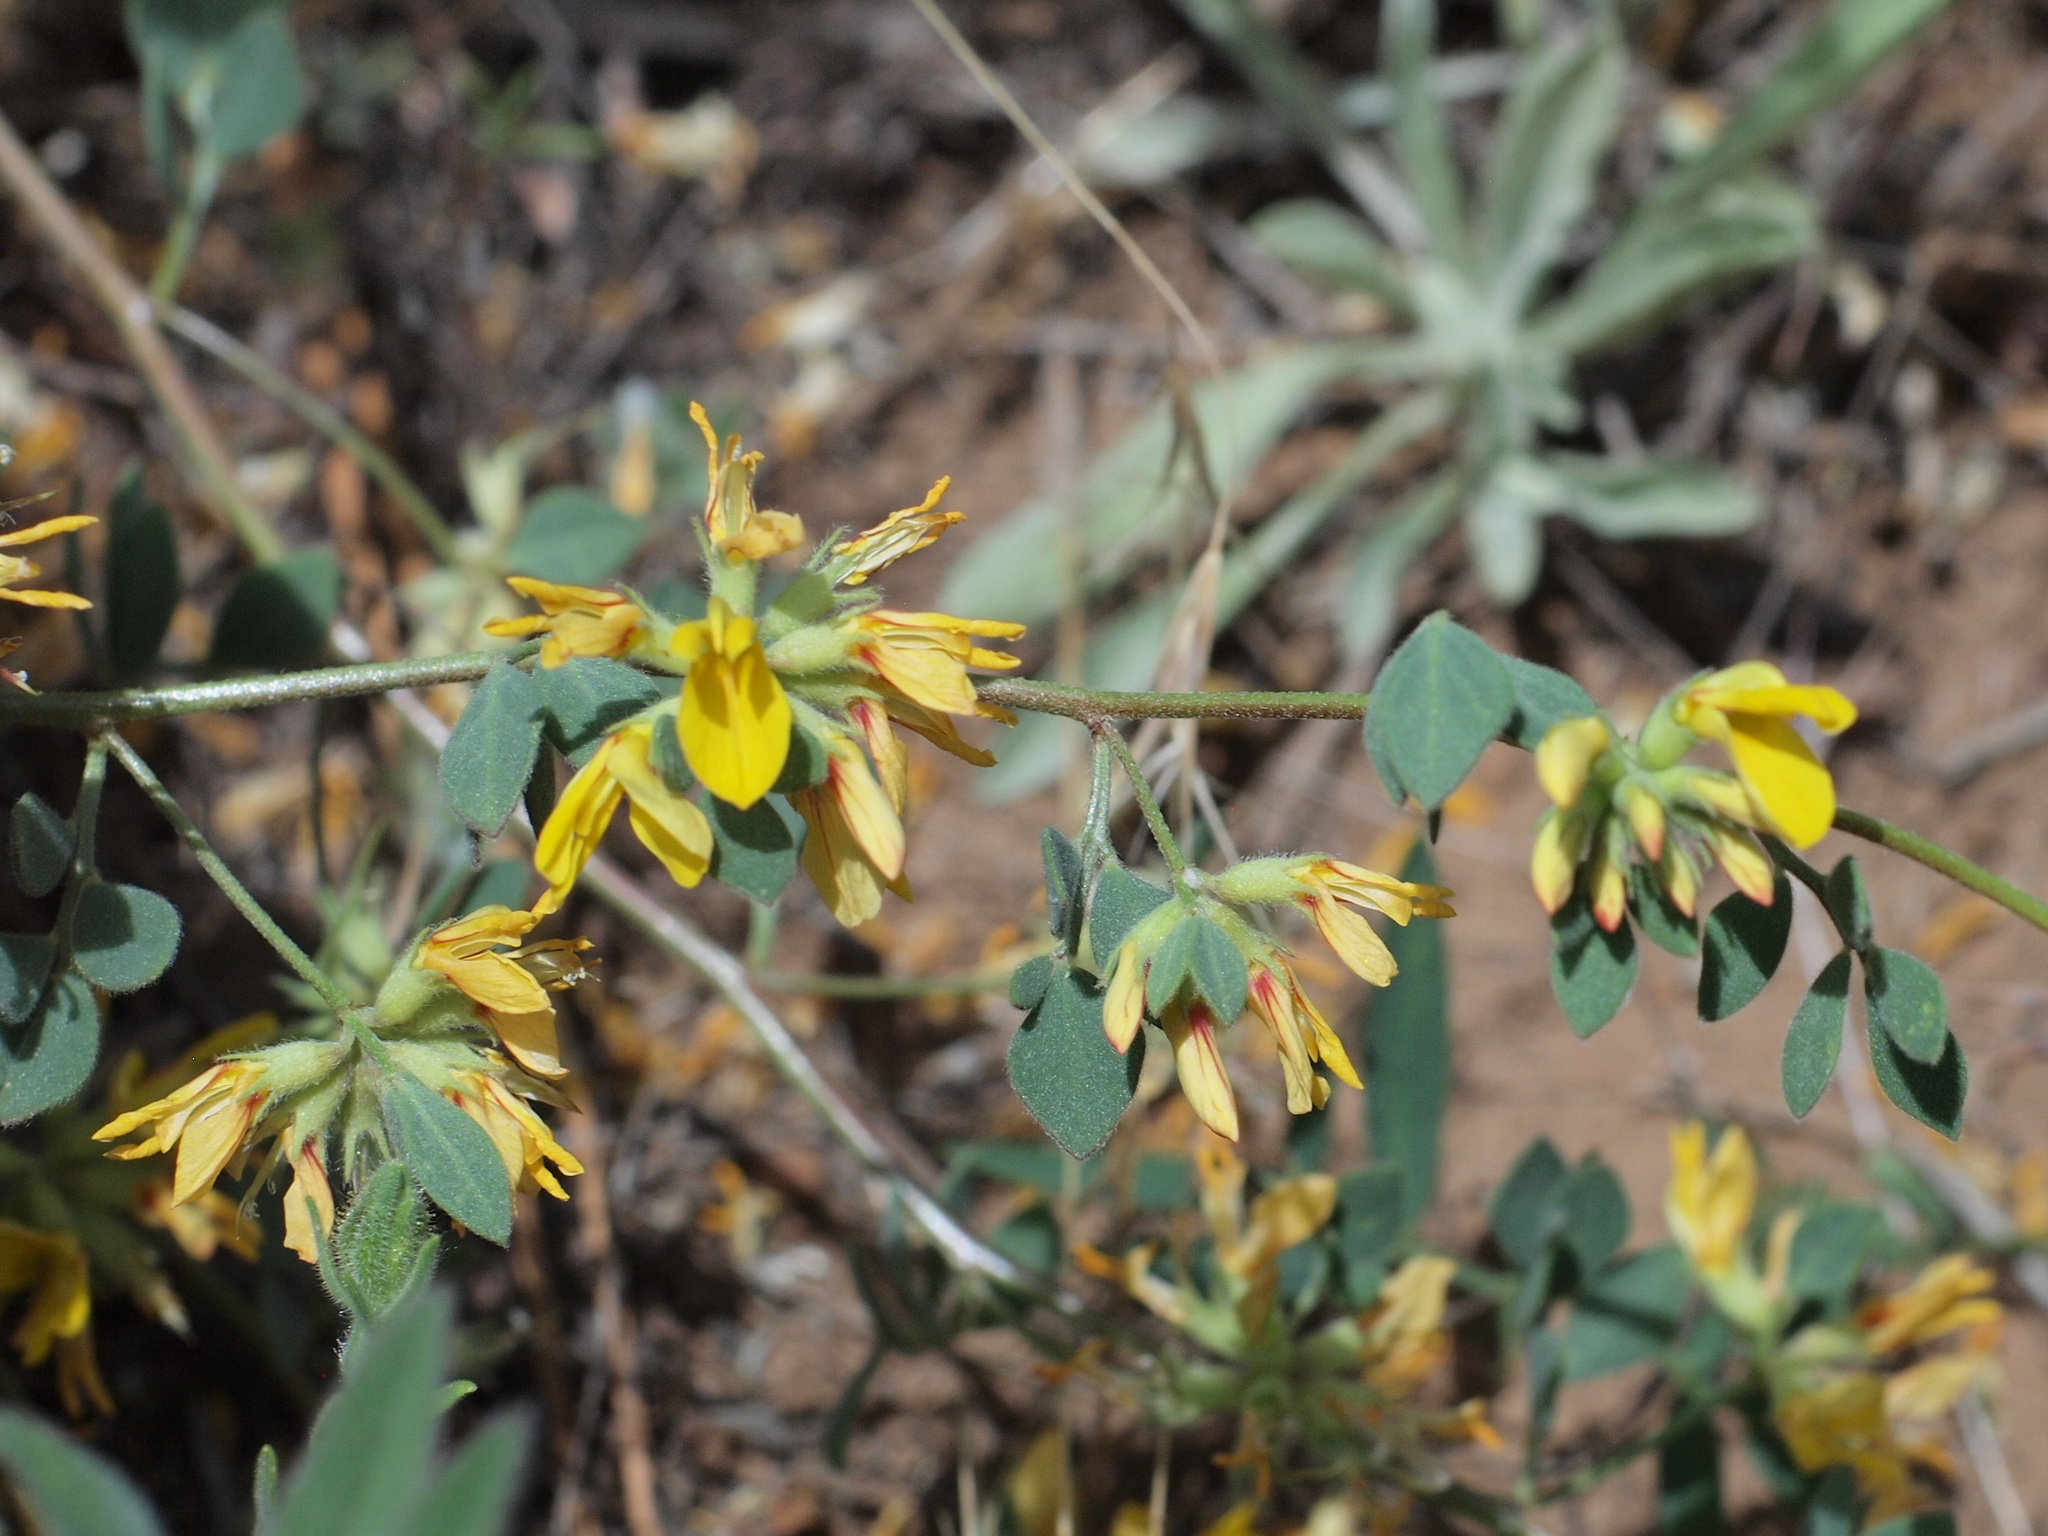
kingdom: Plantae
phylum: Tracheophyta
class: Magnoliopsida
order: Fabales
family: Fabaceae
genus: Acmispon
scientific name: Acmispon decumbens
